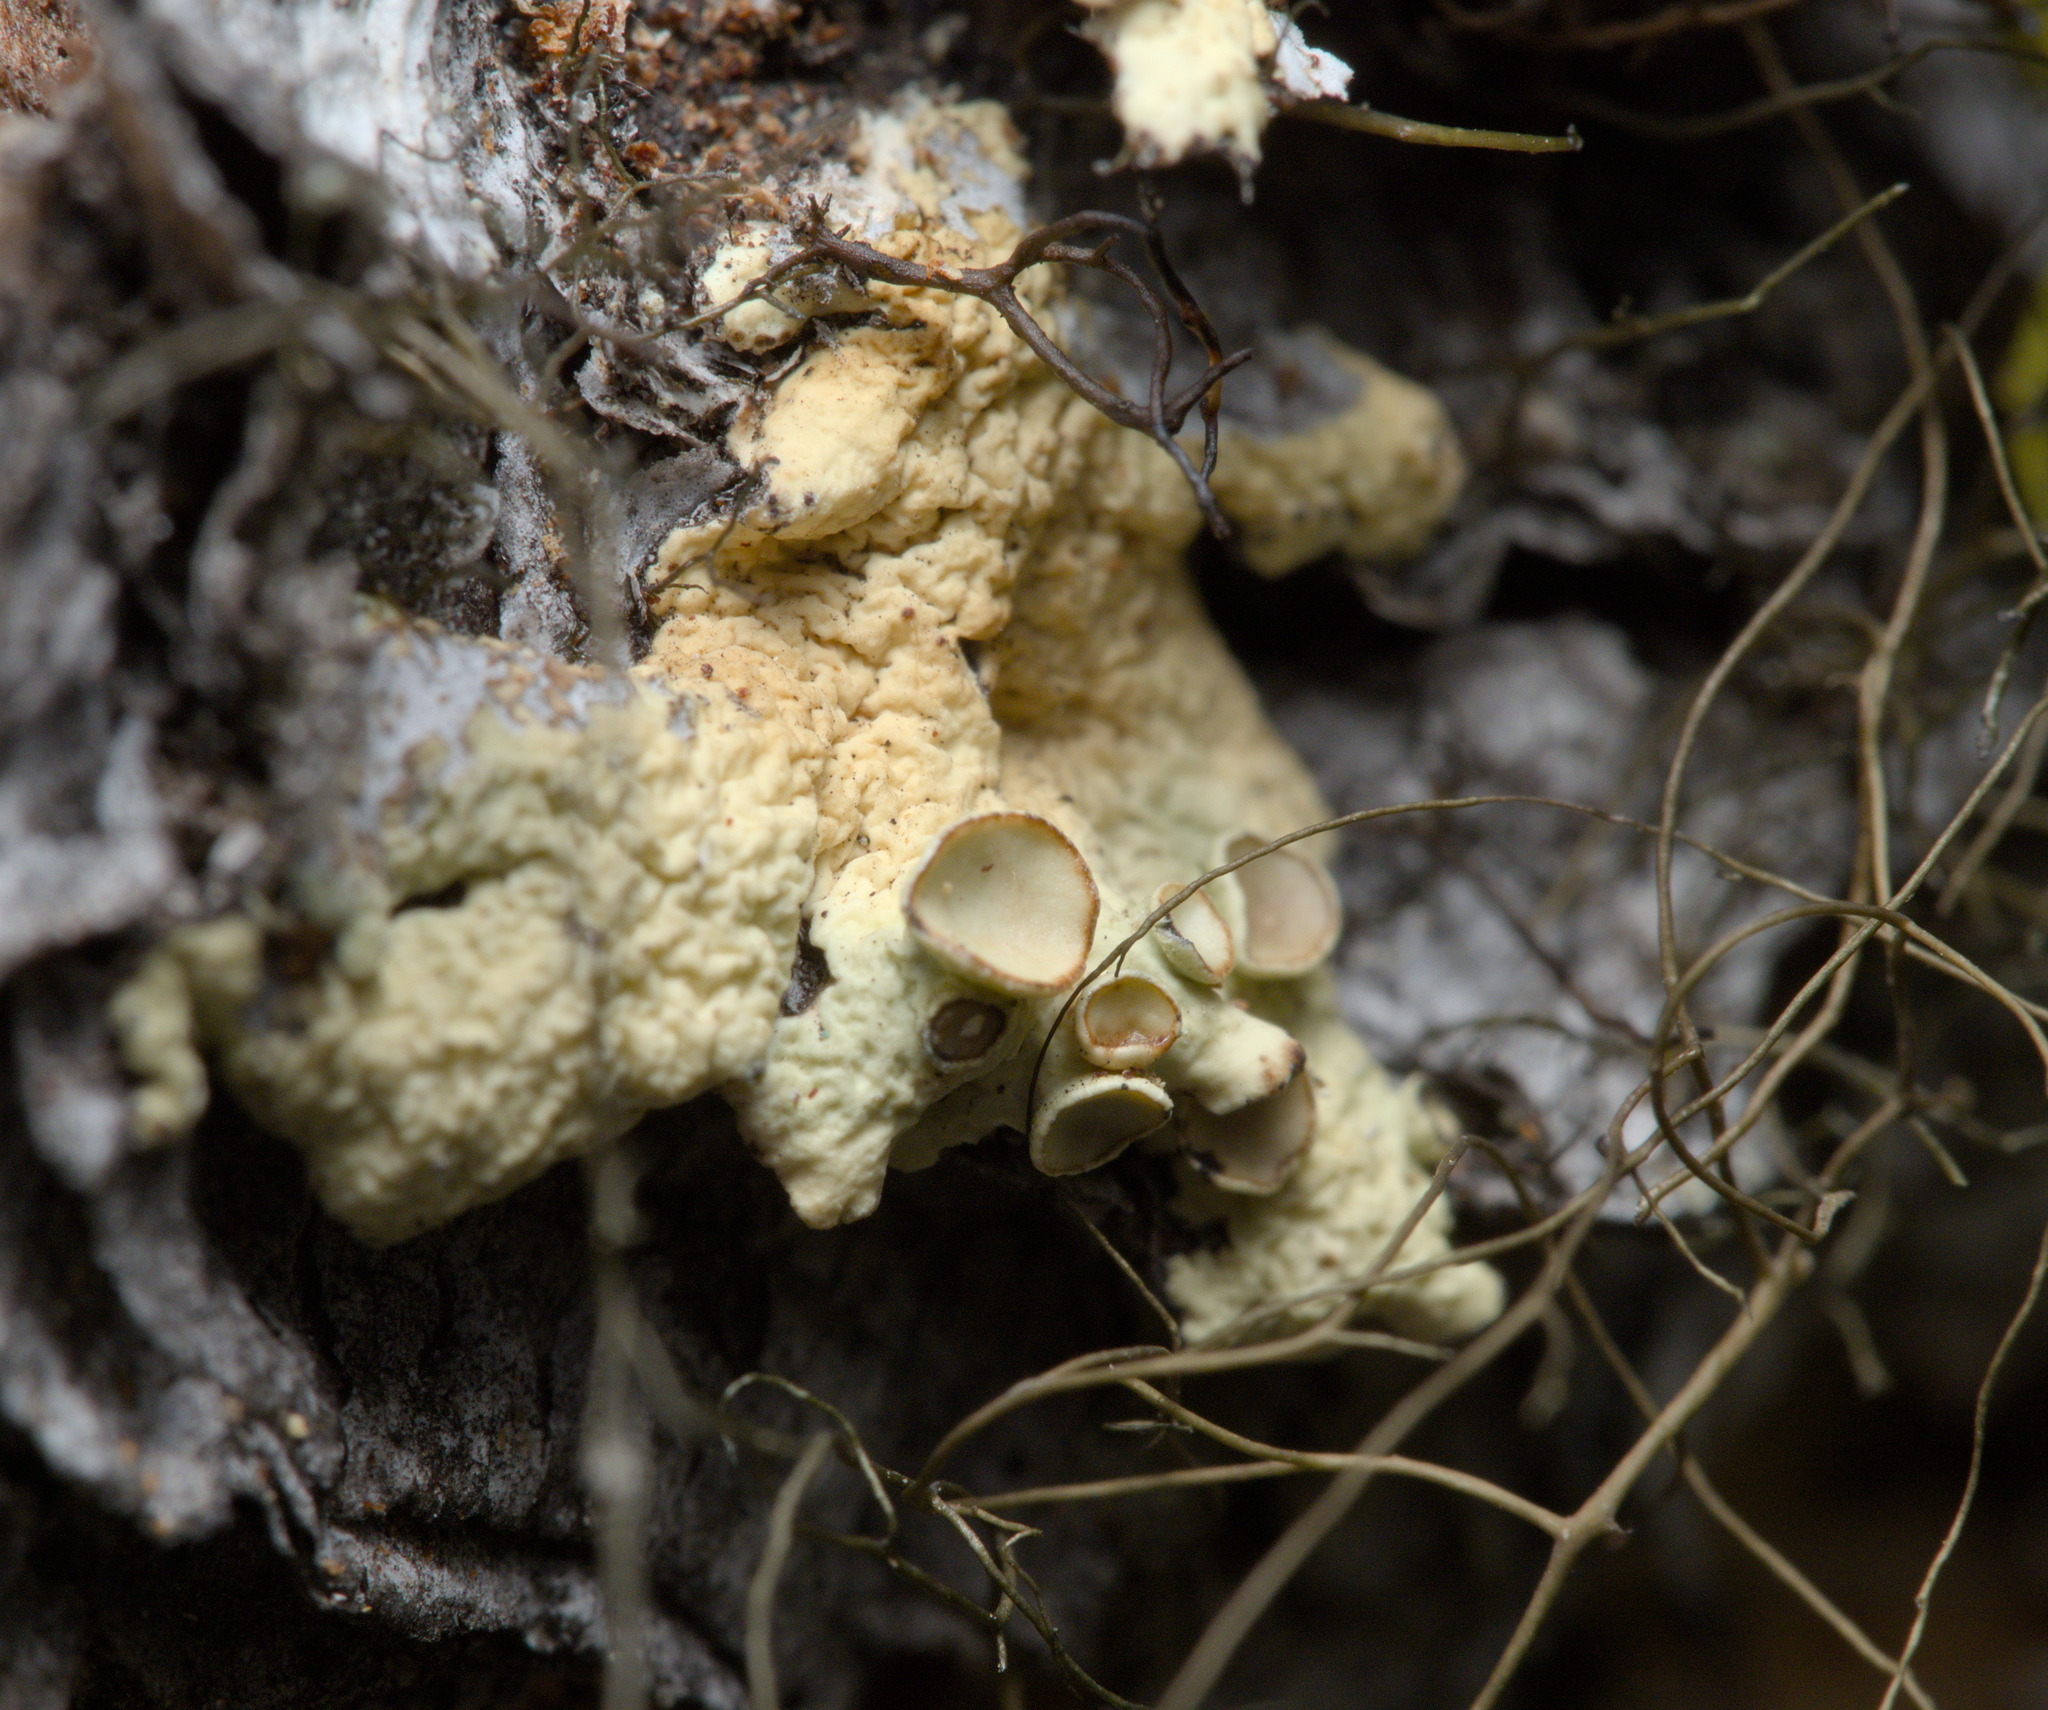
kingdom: Fungi
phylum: Ascomycota
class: Lecanoromycetes
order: Lecanorales
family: Parmeliaceae
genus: Nephromopsis
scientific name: Nephromopsis sphaerosporella
